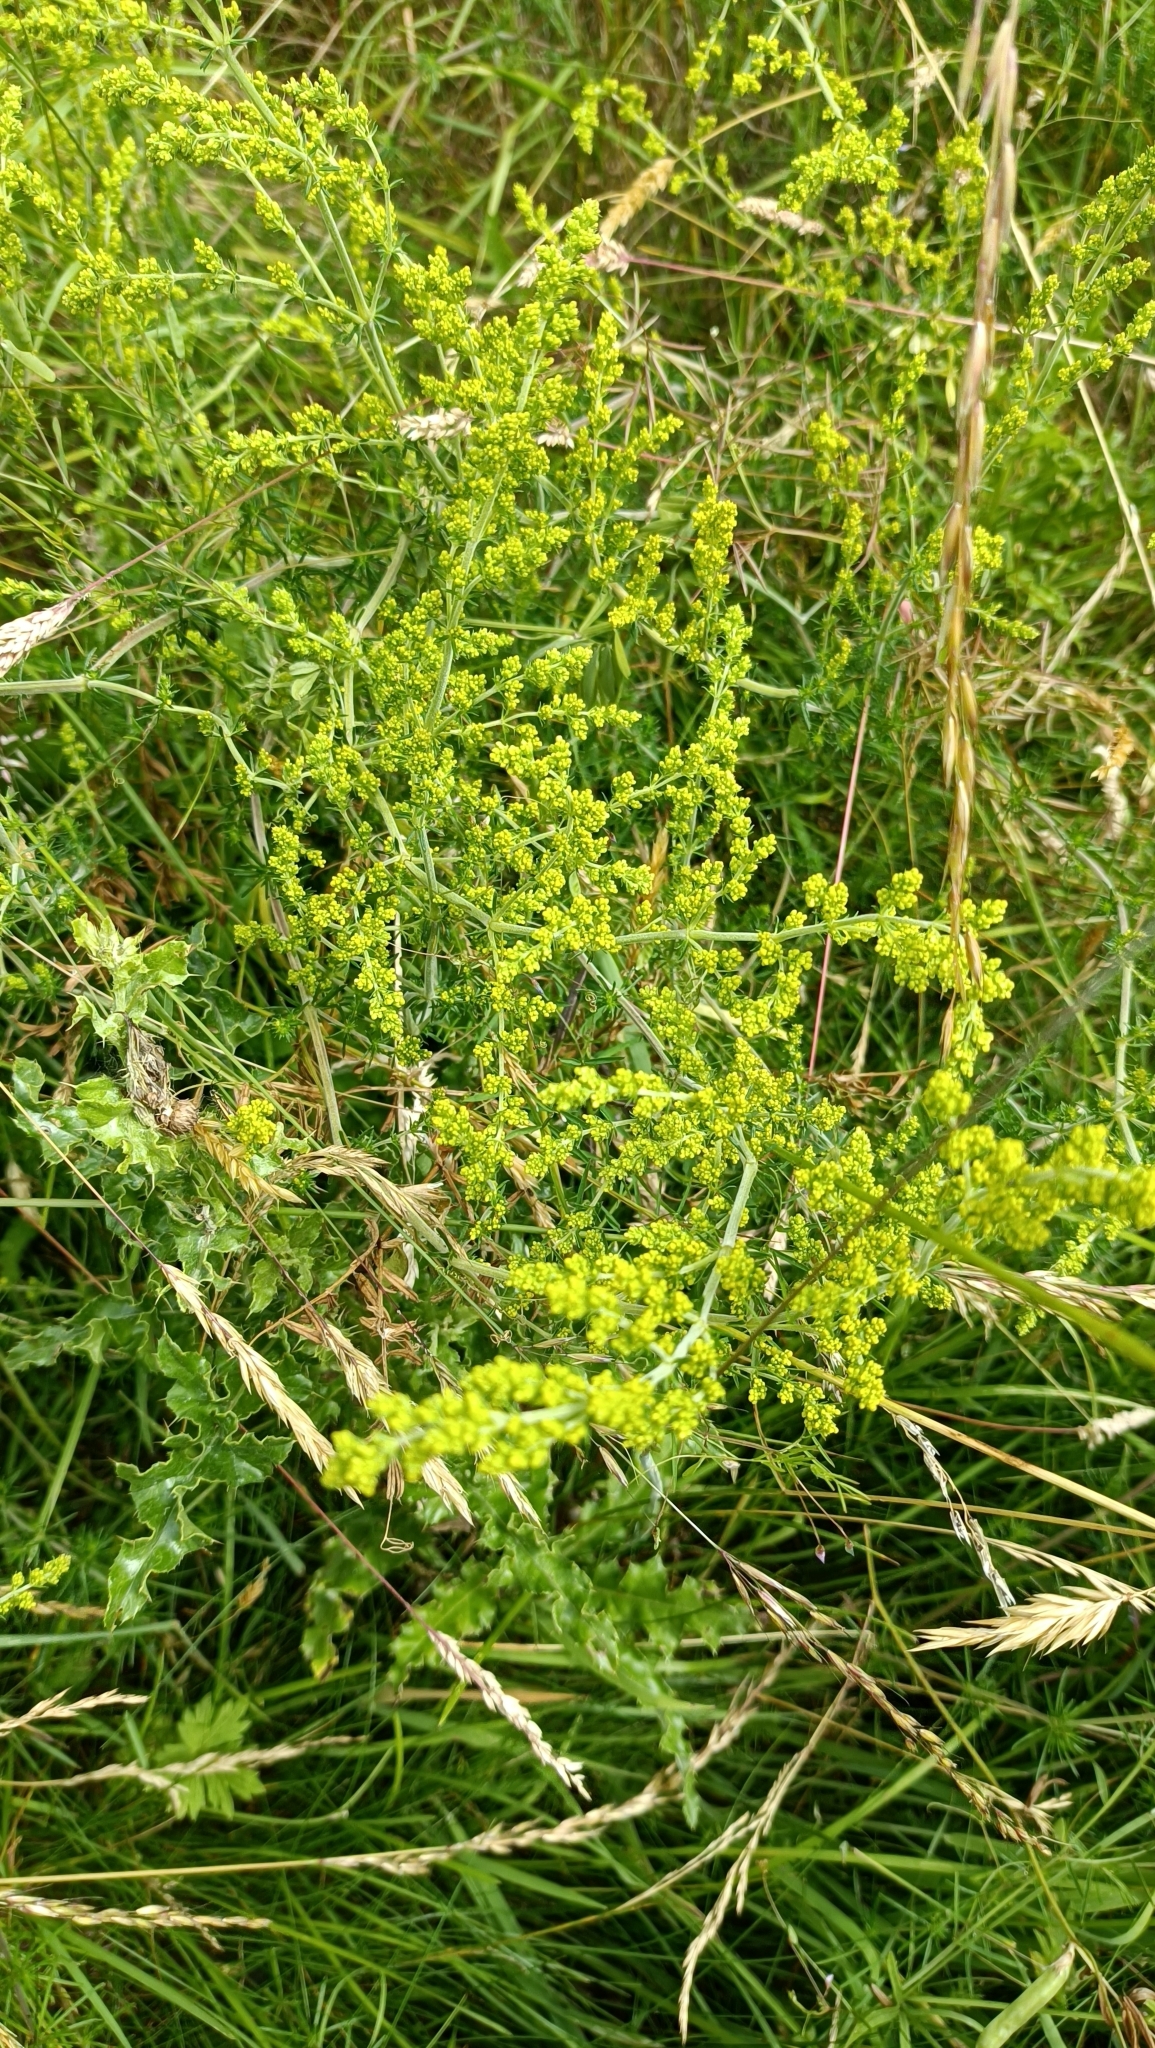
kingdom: Plantae
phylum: Tracheophyta
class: Magnoliopsida
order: Gentianales
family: Rubiaceae
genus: Galium
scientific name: Galium verum
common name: Lady's bedstraw
